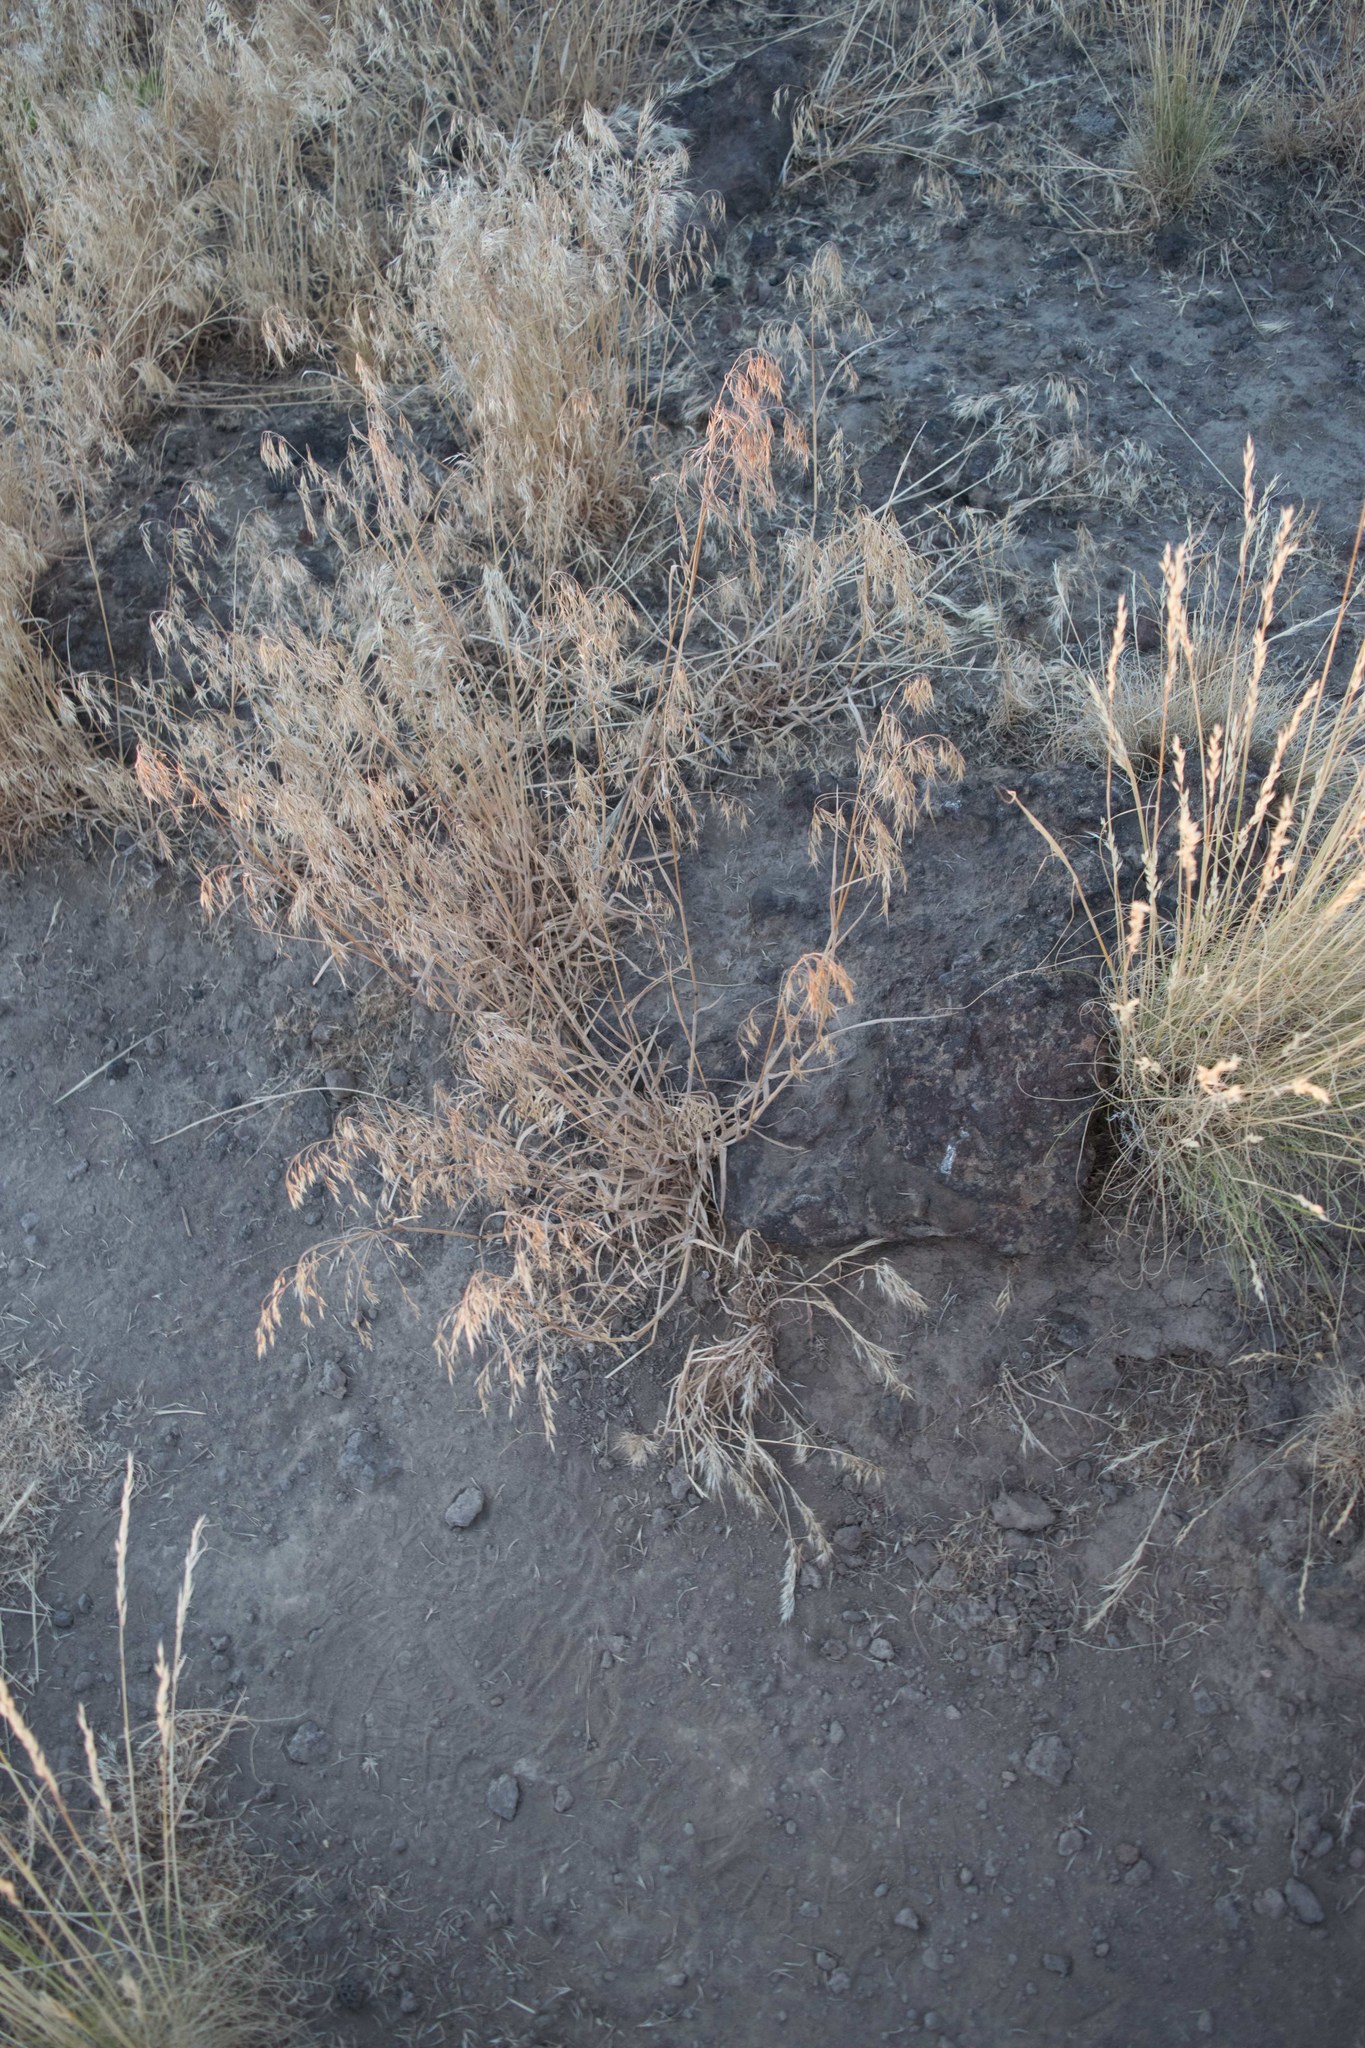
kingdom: Plantae
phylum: Tracheophyta
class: Liliopsida
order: Poales
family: Poaceae
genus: Bromus
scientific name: Bromus tectorum
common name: Cheatgrass
